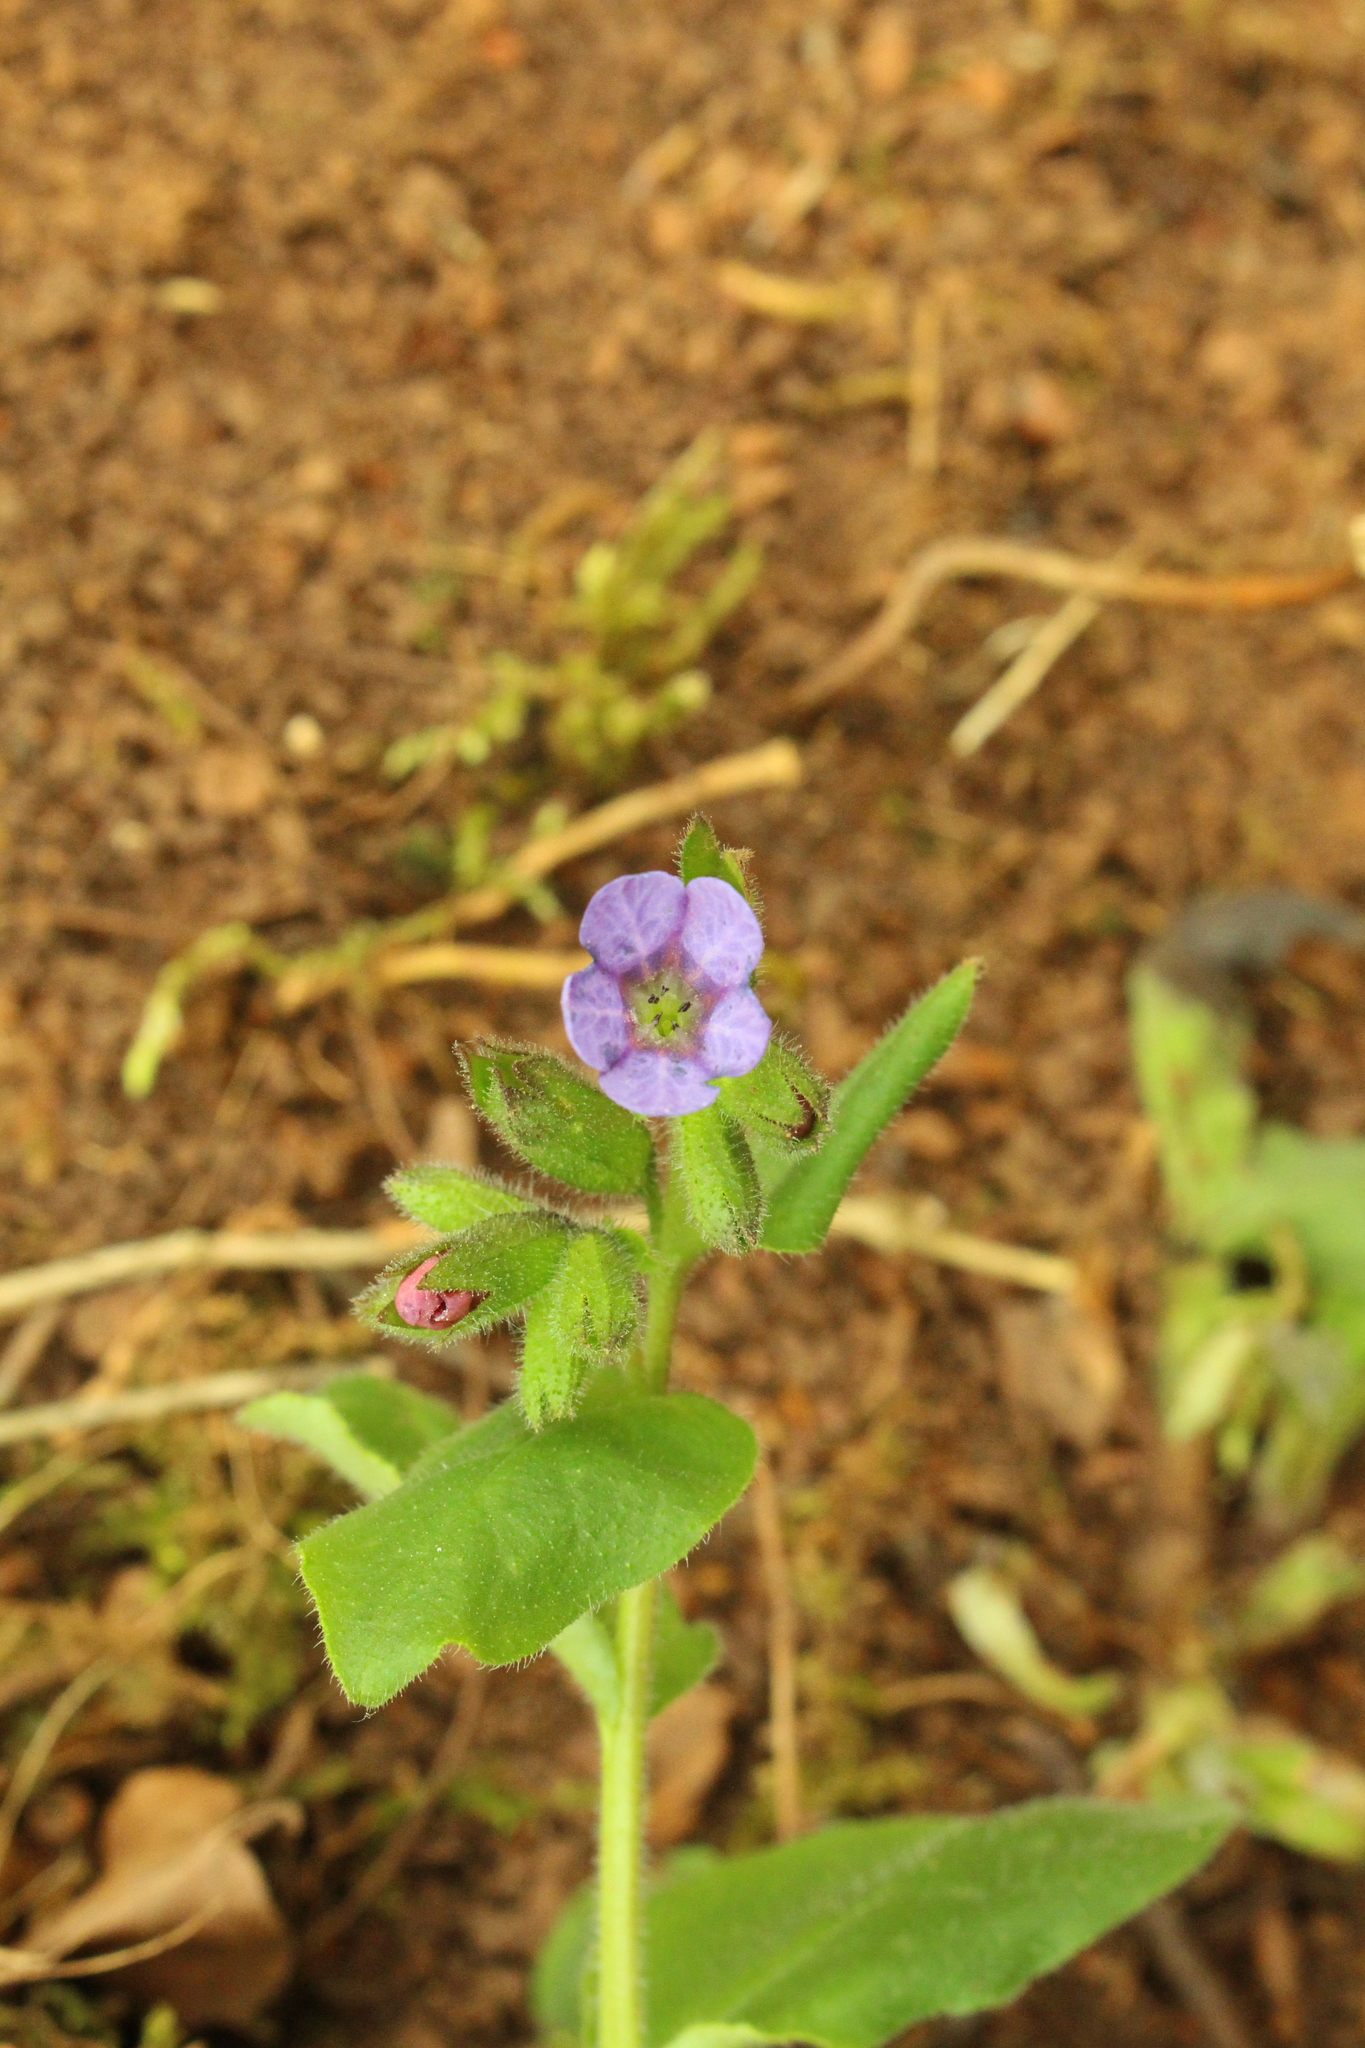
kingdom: Plantae
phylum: Tracheophyta
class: Magnoliopsida
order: Boraginales
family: Boraginaceae
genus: Pulmonaria
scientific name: Pulmonaria obscura
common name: Suffolk lungwort
